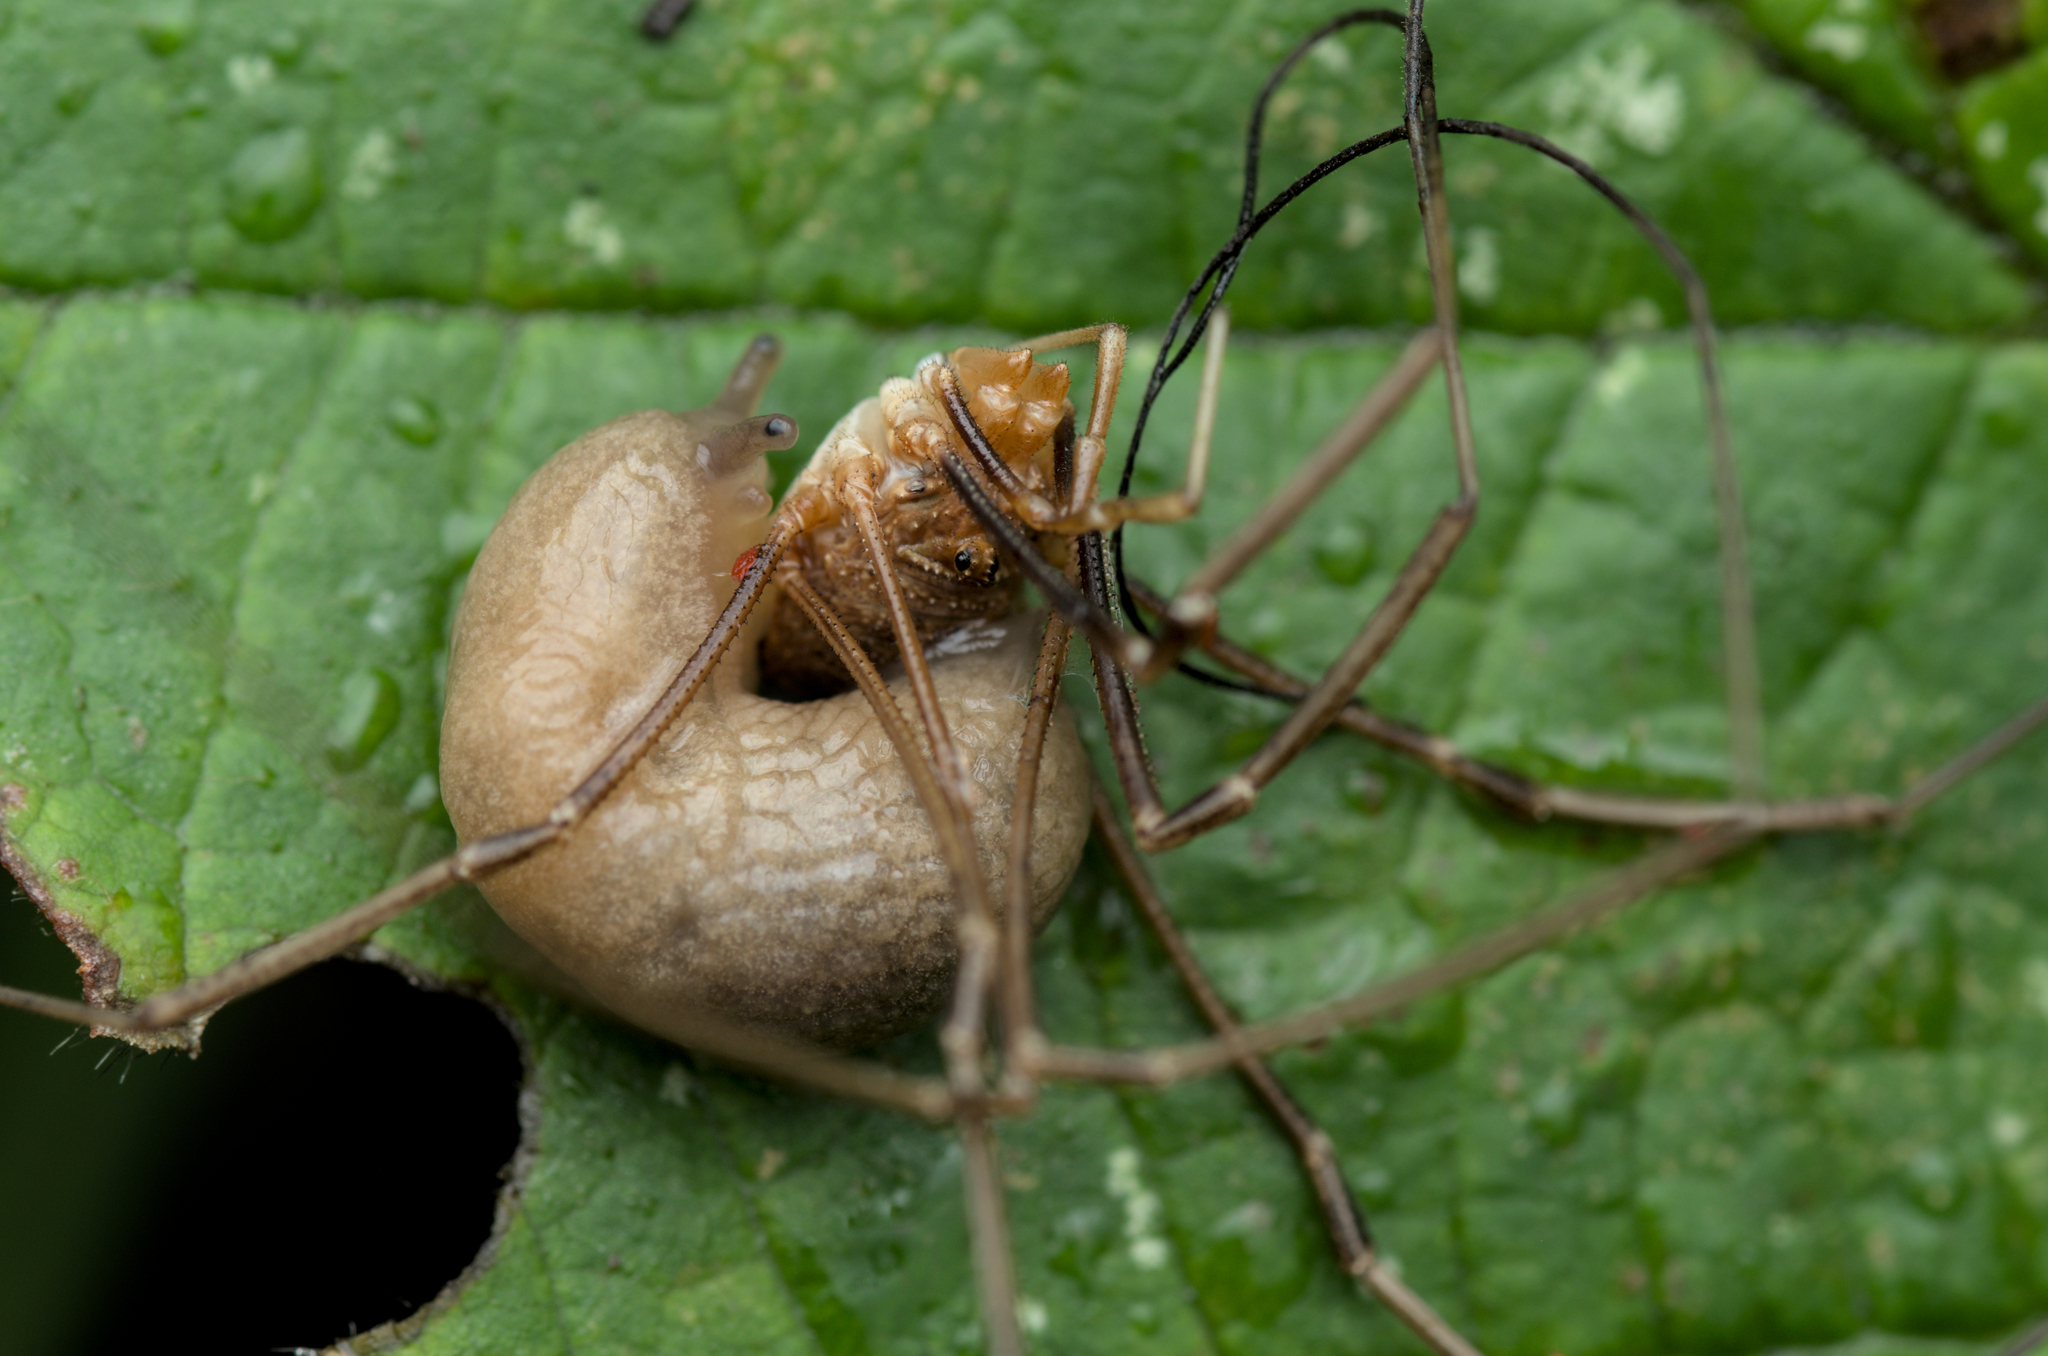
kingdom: Animalia
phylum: Arthropoda
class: Arachnida
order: Opiliones
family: Phalangiidae
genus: Phalangium
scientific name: Phalangium opilio
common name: Daddy longleg
